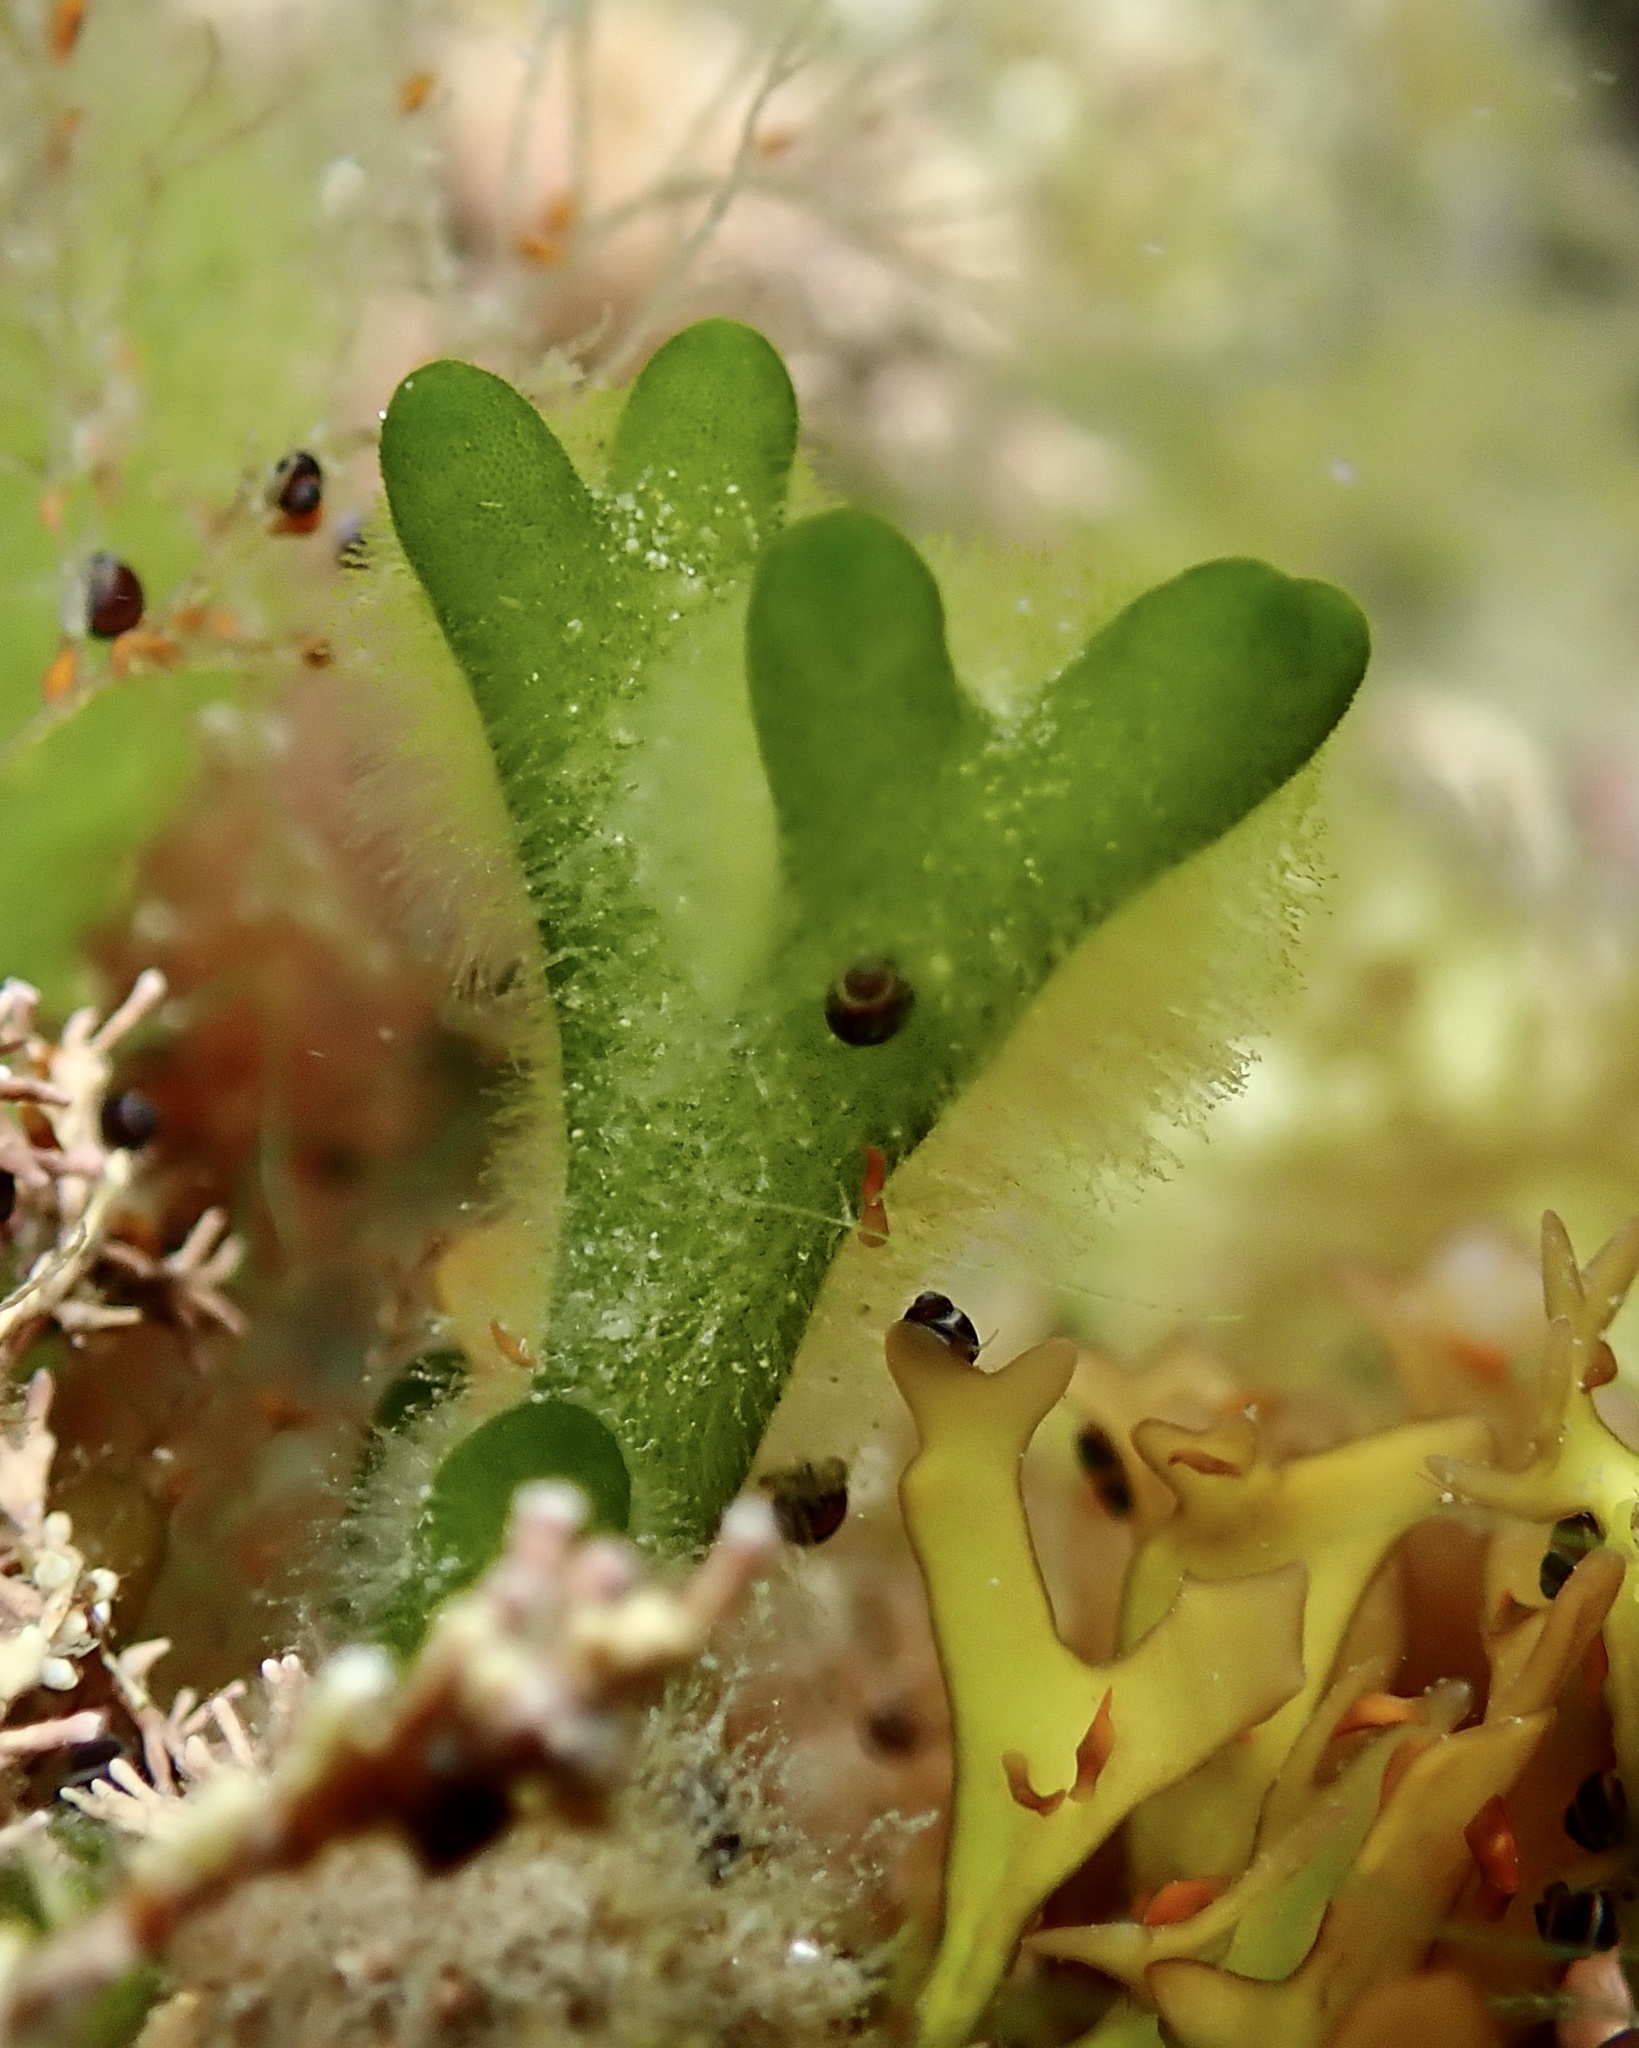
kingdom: Plantae
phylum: Chlorophyta
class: Ulvophyceae
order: Bryopsidales
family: Codiaceae
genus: Codium
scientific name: Codium fragile
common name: Dead man's fingers
